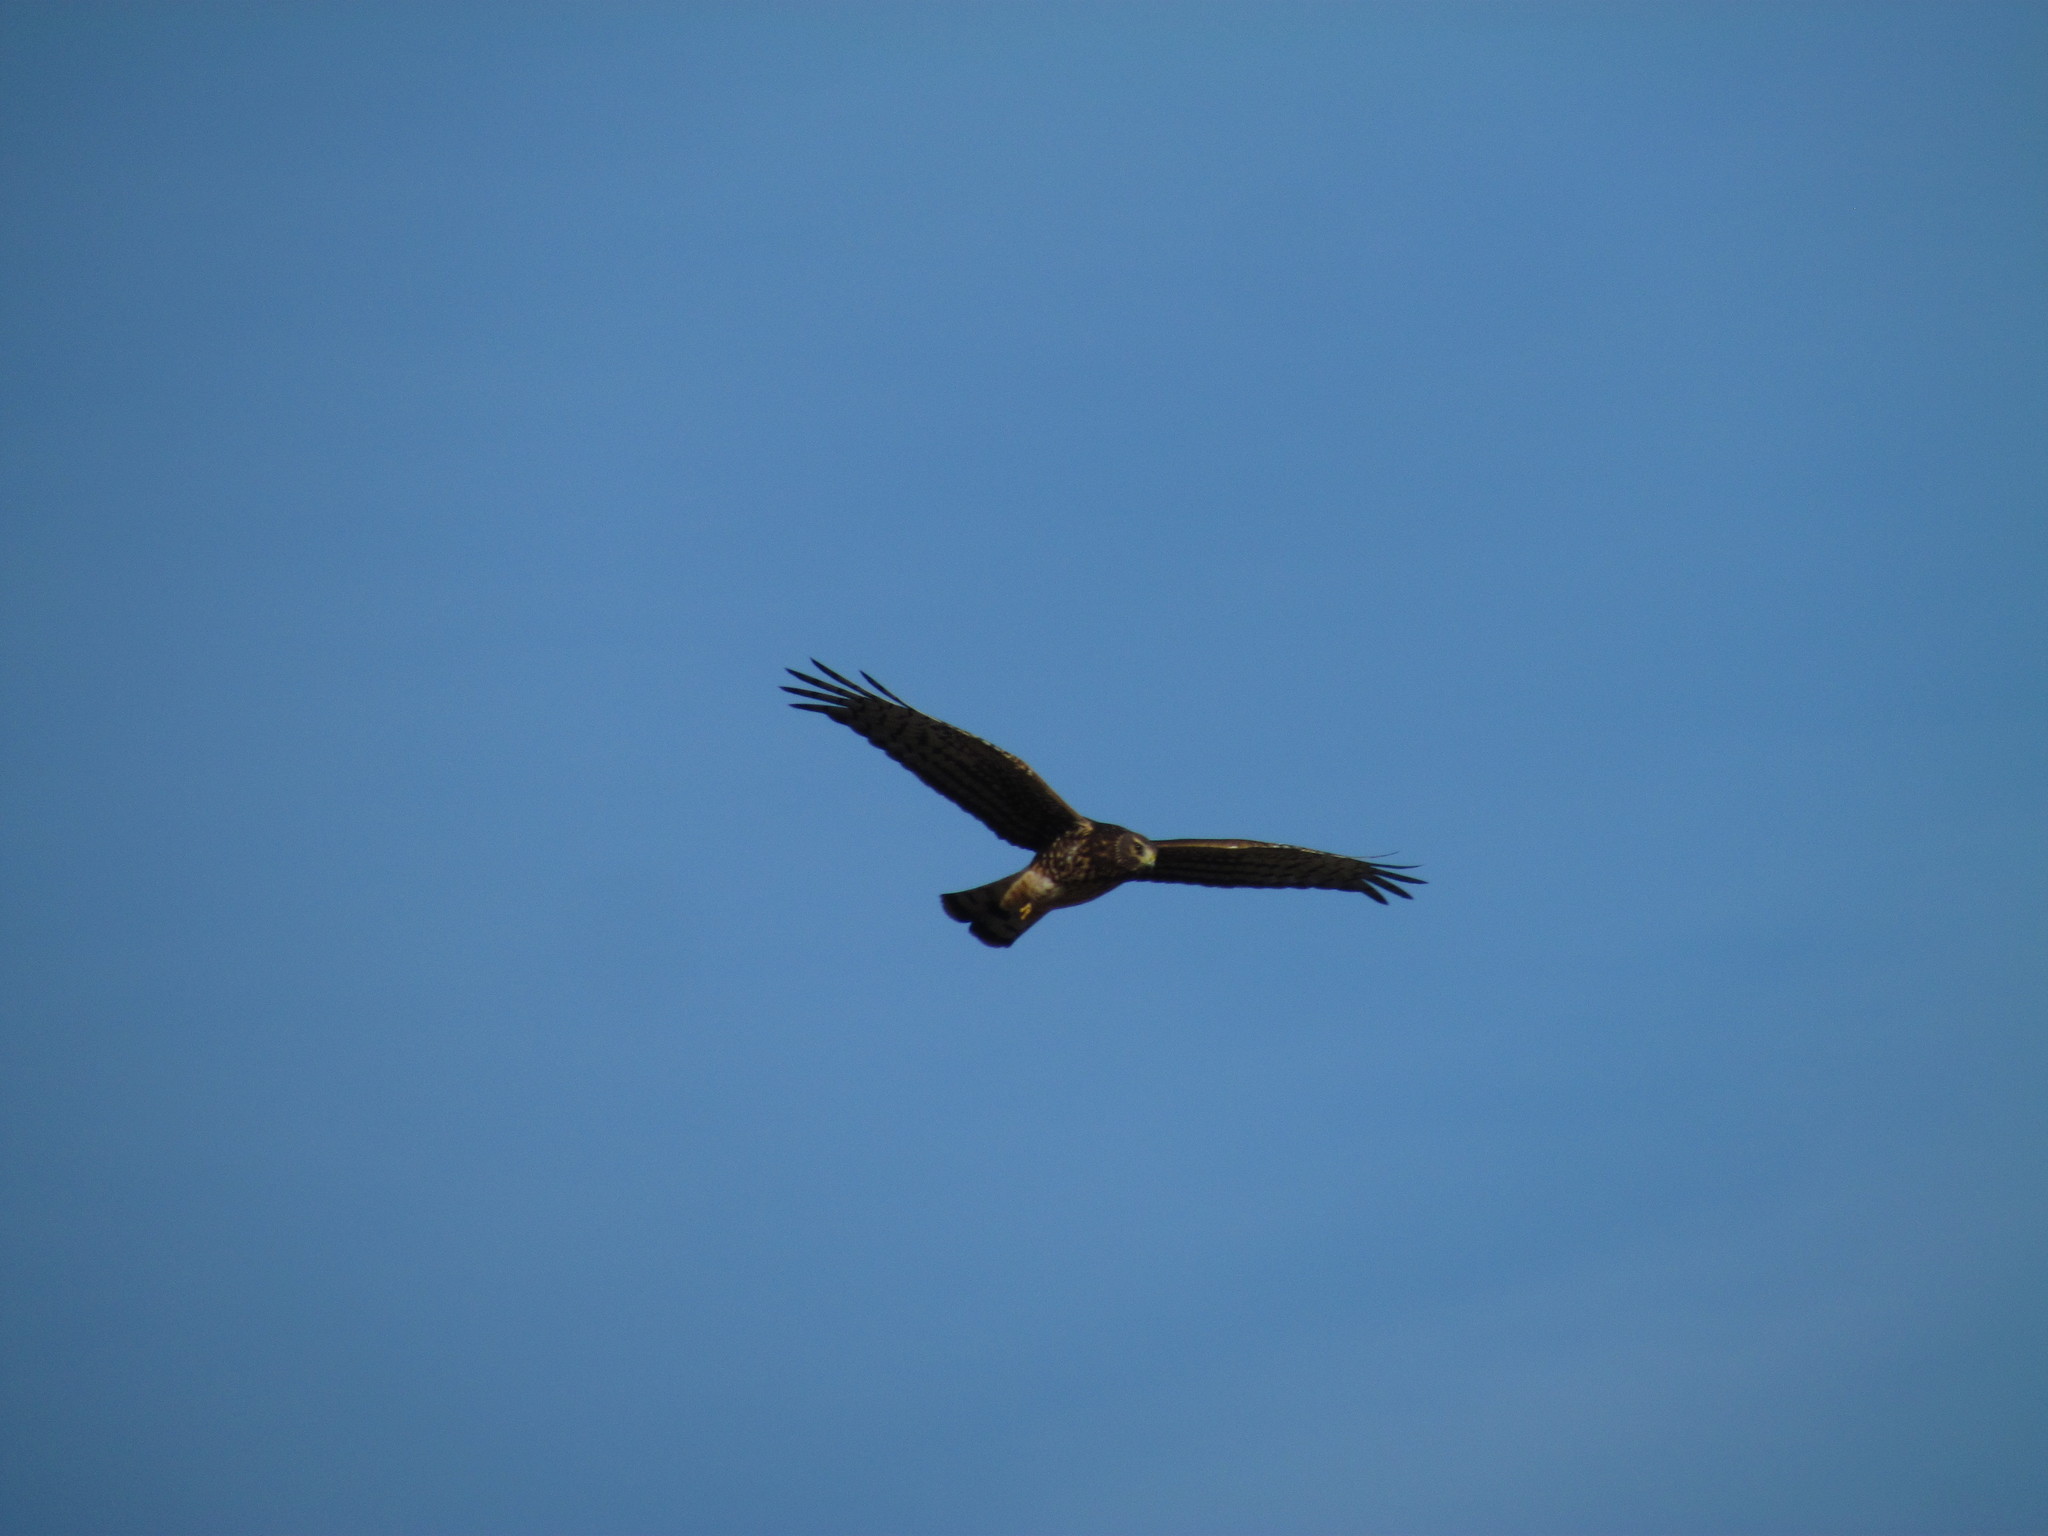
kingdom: Animalia
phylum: Chordata
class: Aves
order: Accipitriformes
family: Accipitridae
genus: Circus
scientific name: Circus cinereus
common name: Cinereous harrier
